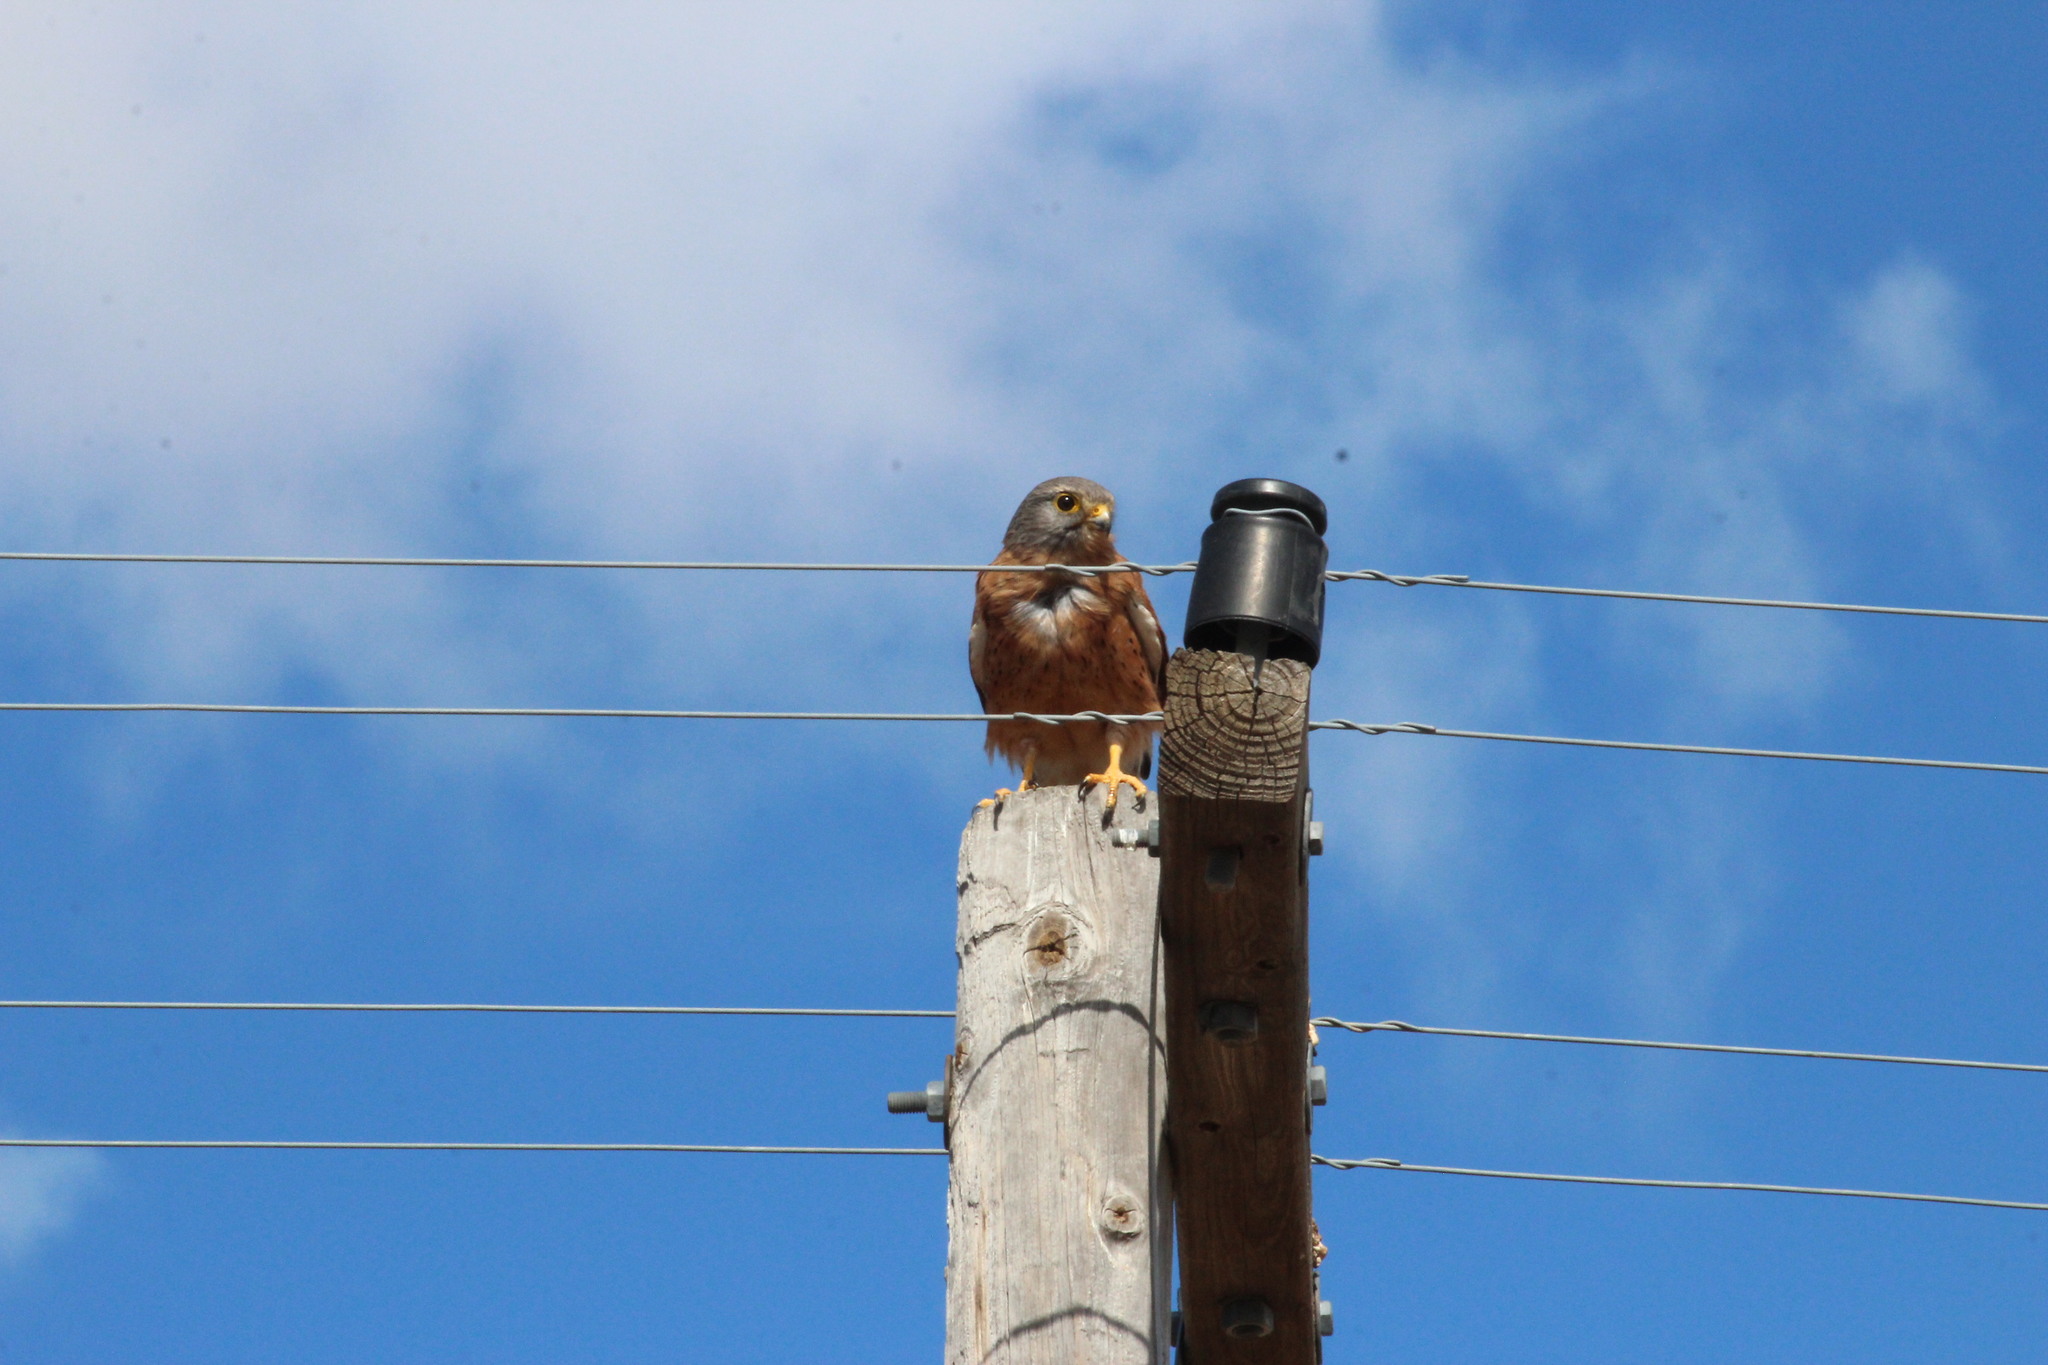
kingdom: Animalia
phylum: Chordata
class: Aves
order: Falconiformes
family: Falconidae
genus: Falco
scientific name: Falco rupicolus
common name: Rock kestrel
